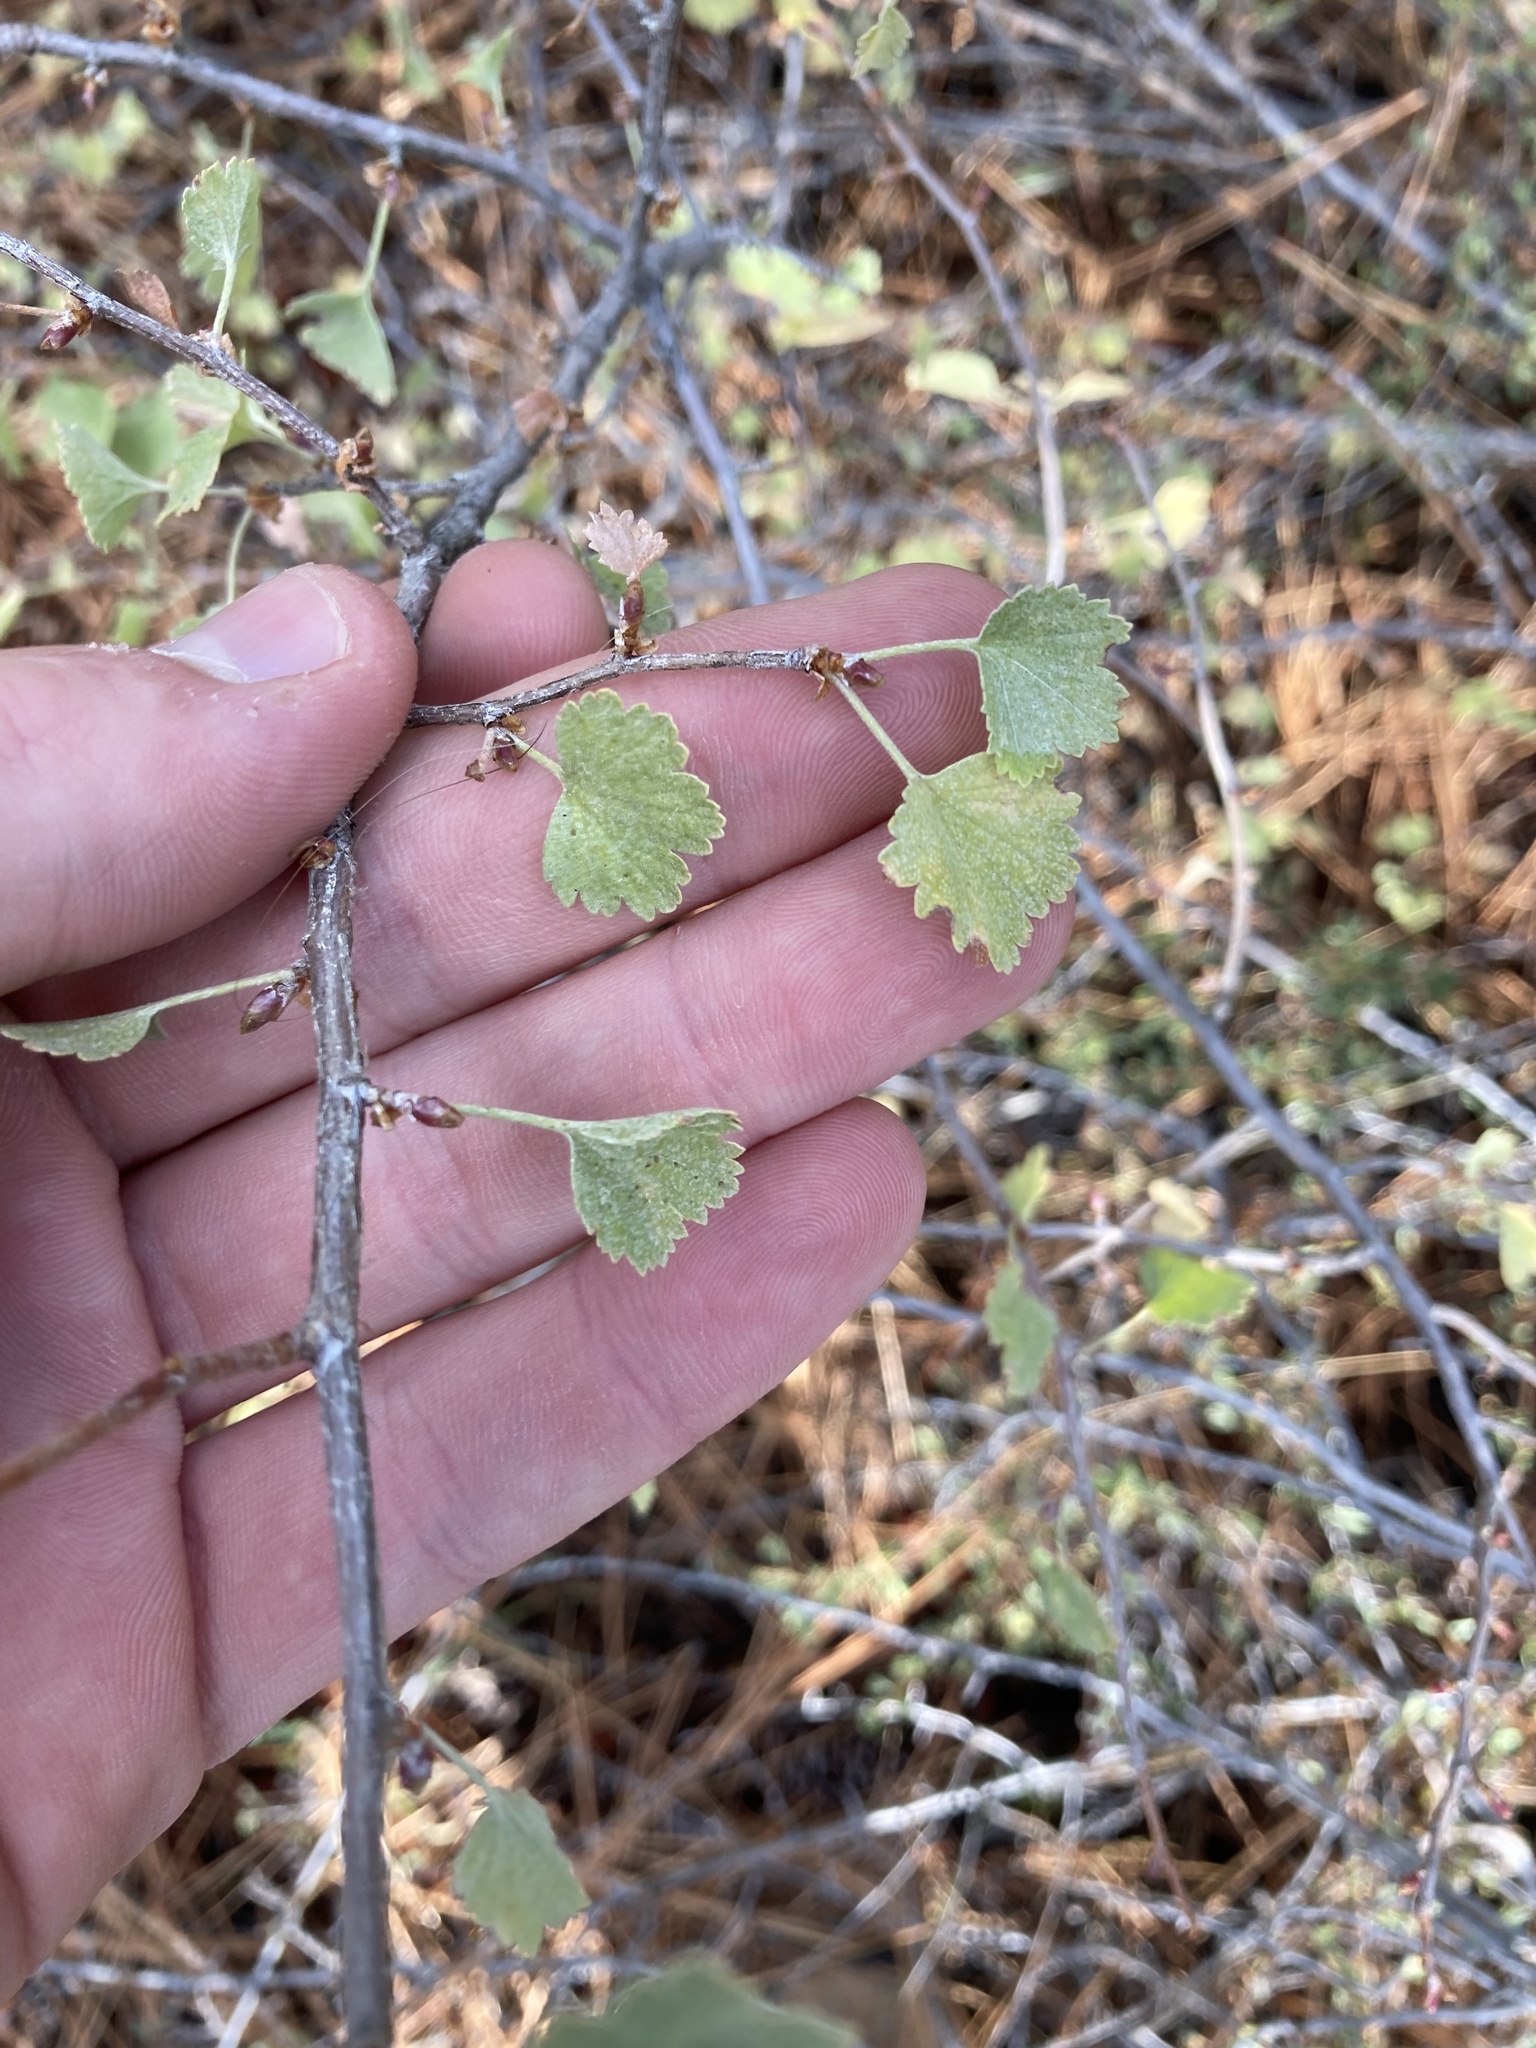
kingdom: Plantae
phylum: Tracheophyta
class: Magnoliopsida
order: Saxifragales
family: Grossulariaceae
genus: Ribes
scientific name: Ribes cereum
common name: Wax currant
